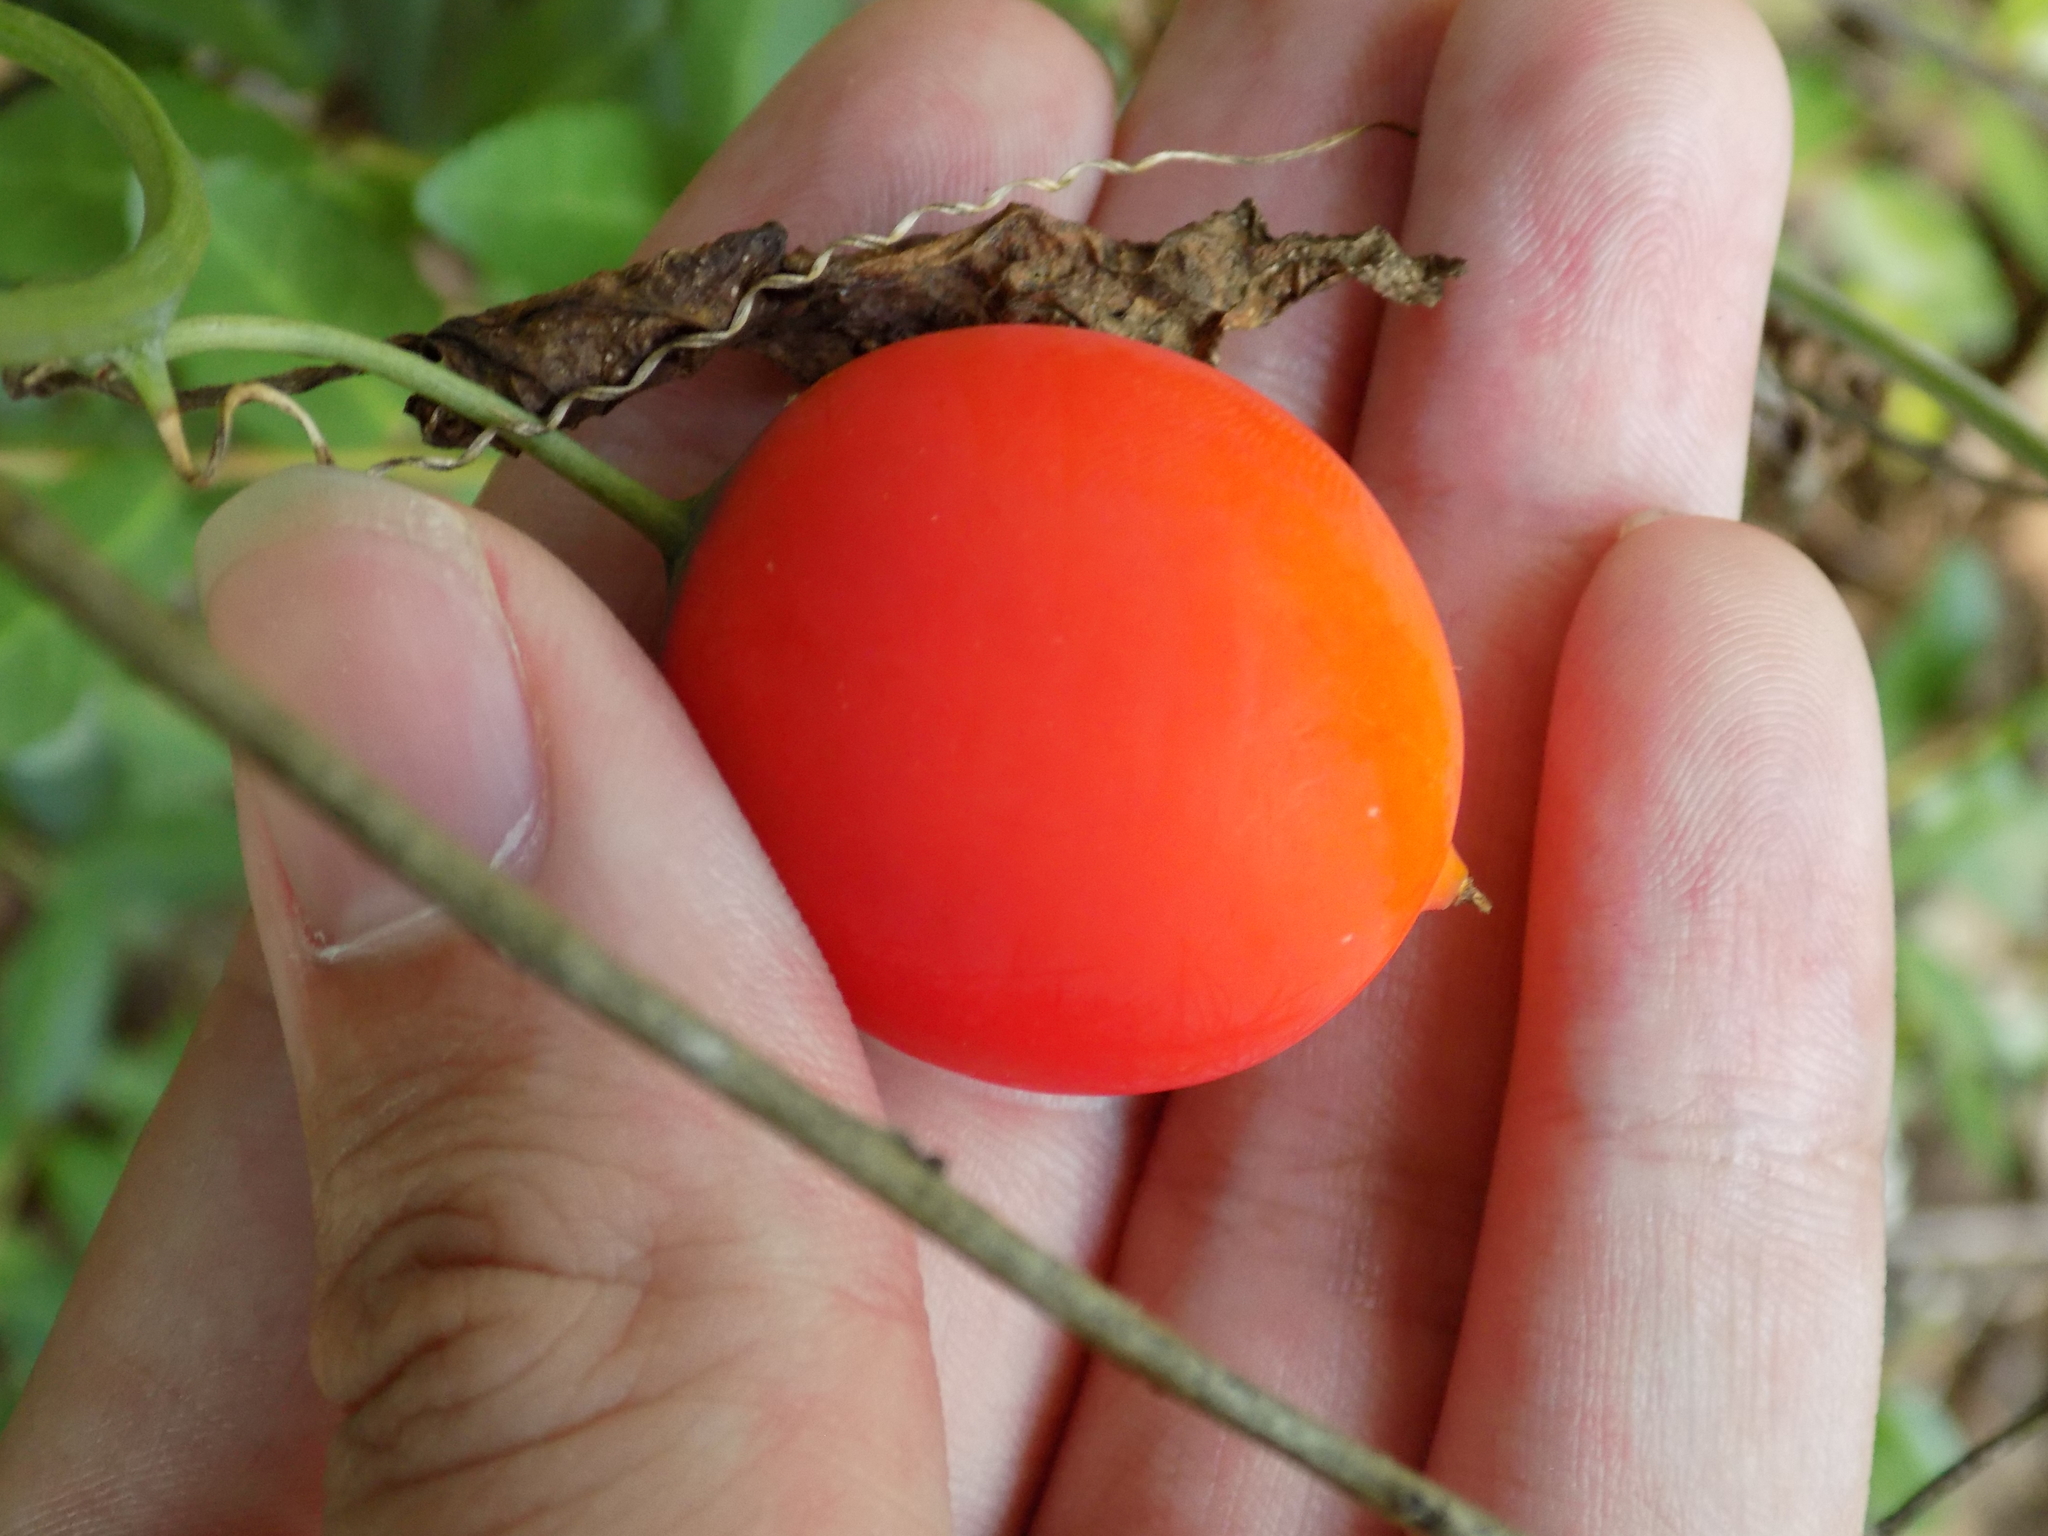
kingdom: Plantae
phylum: Tracheophyta
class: Magnoliopsida
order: Cucurbitales
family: Cucurbitaceae
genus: Ibervillea
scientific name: Ibervillea lindheimeri
